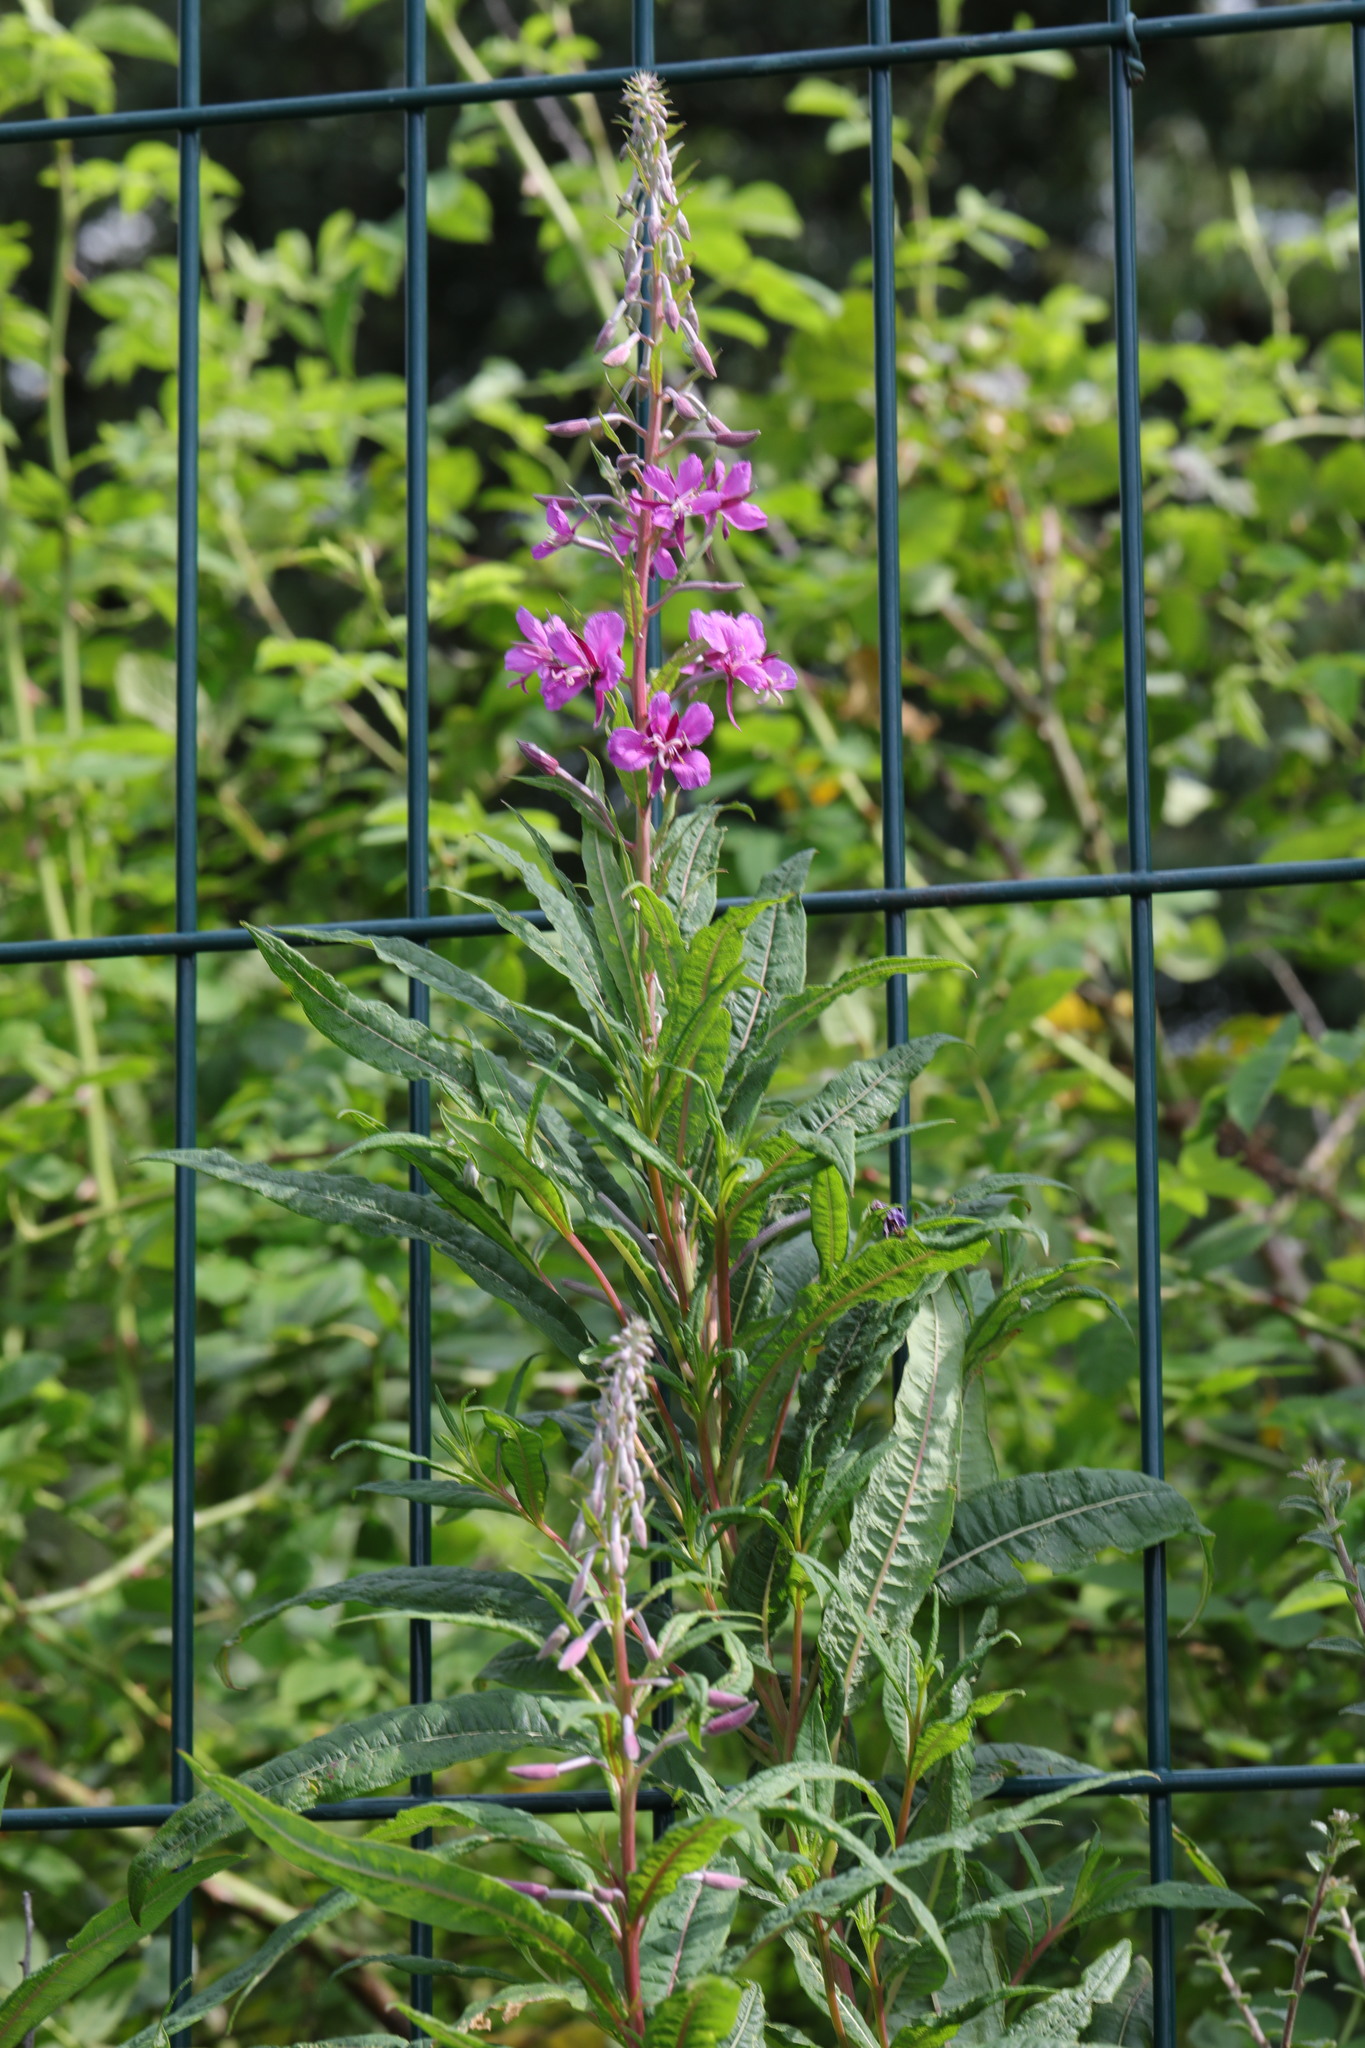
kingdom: Plantae
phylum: Tracheophyta
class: Magnoliopsida
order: Myrtales
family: Onagraceae
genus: Chamaenerion
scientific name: Chamaenerion angustifolium
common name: Fireweed
